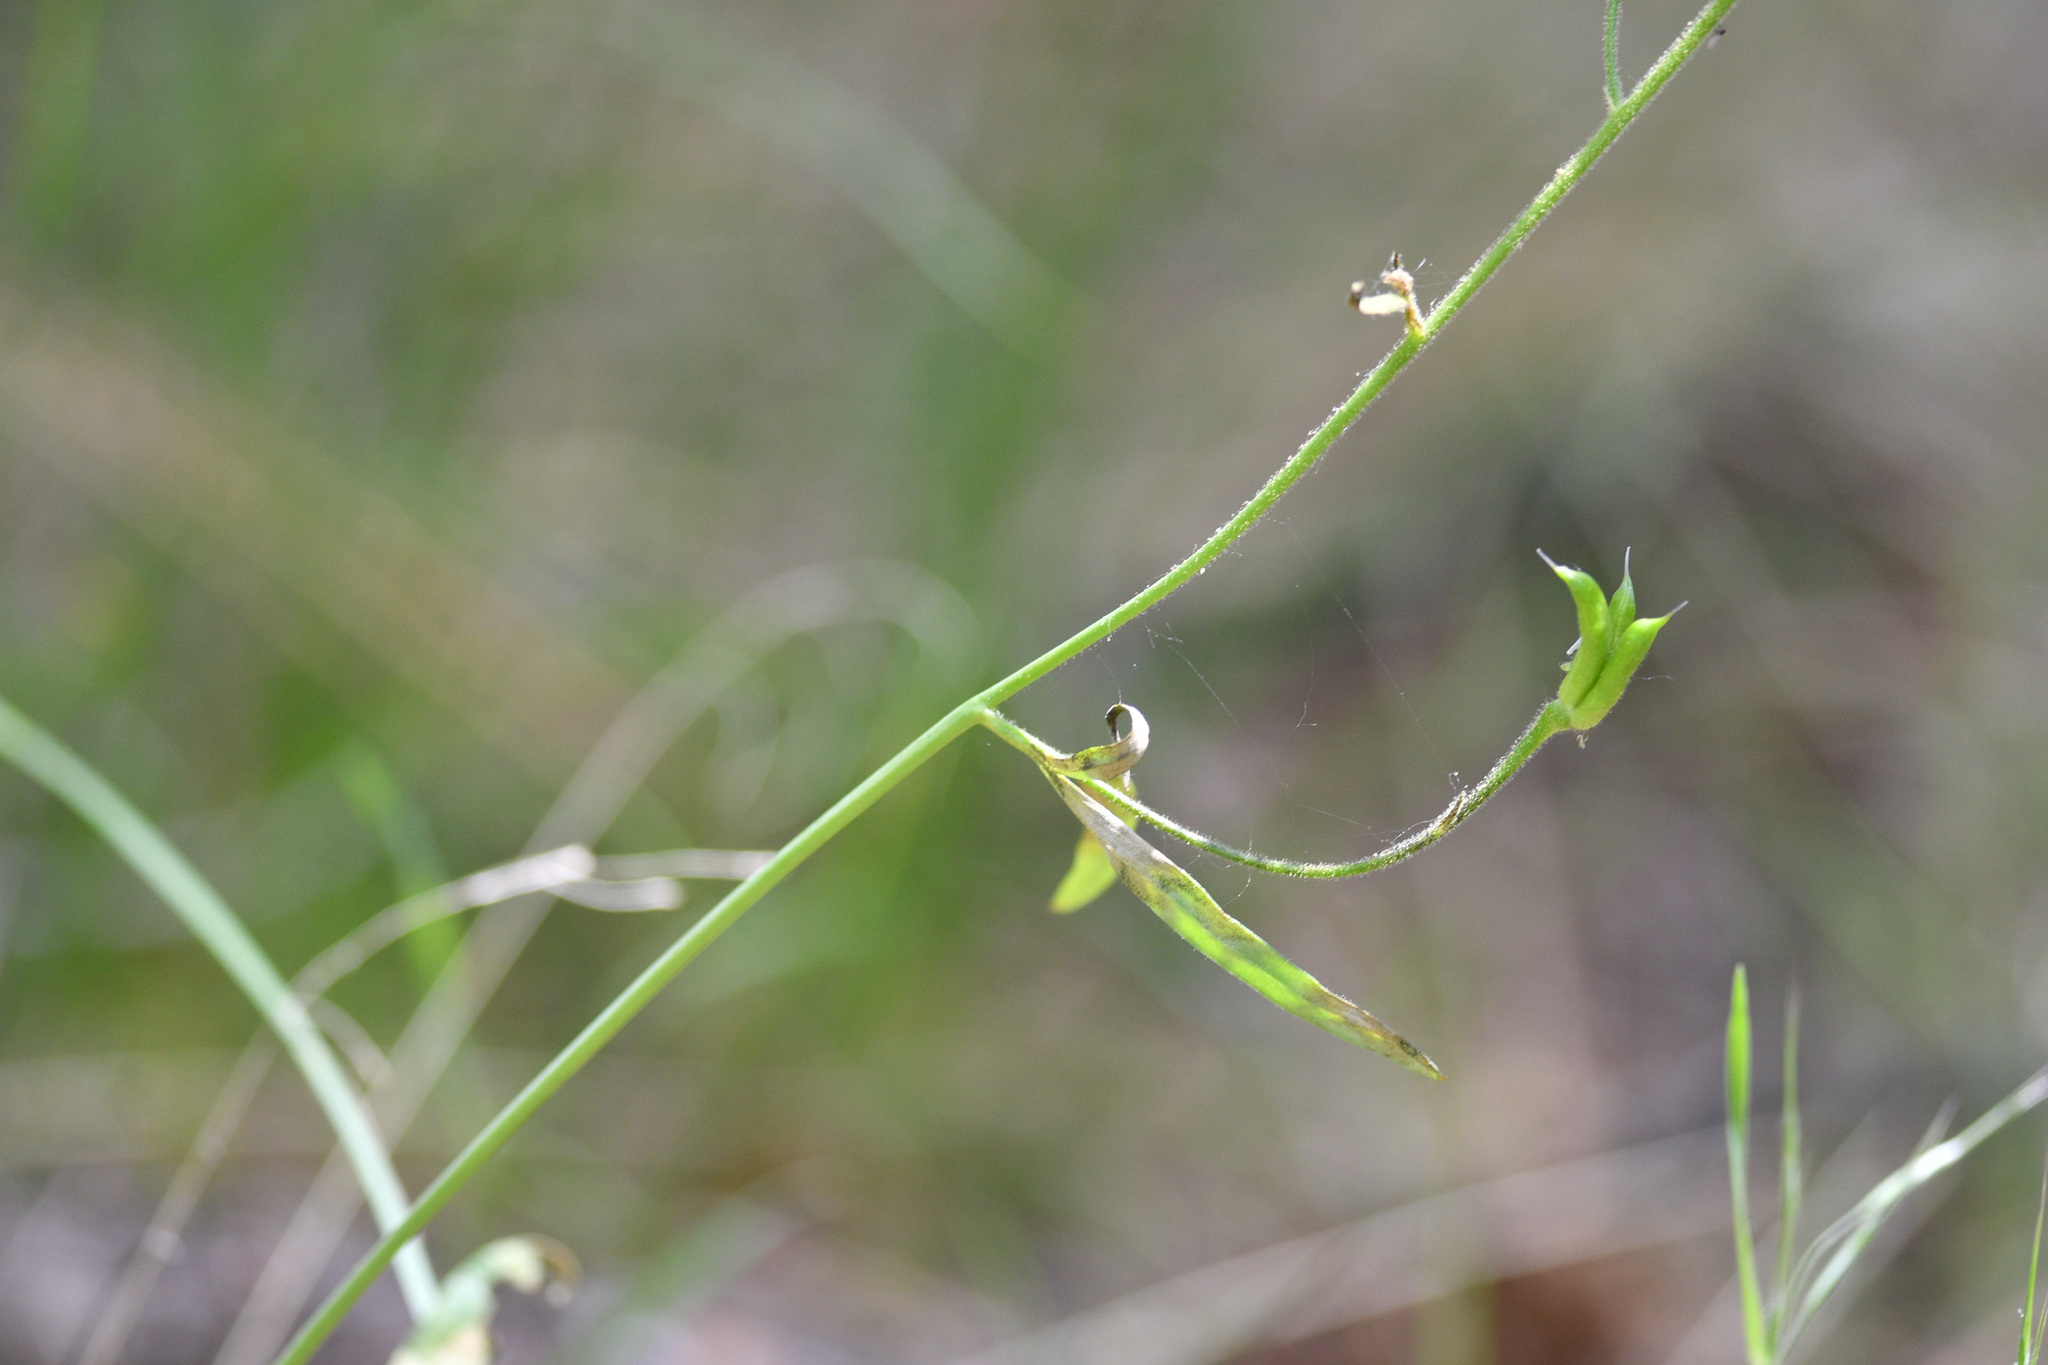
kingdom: Plantae
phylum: Tracheophyta
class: Magnoliopsida
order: Ranunculales
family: Ranunculaceae
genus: Delphinium
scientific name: Delphinium nuttallianum
